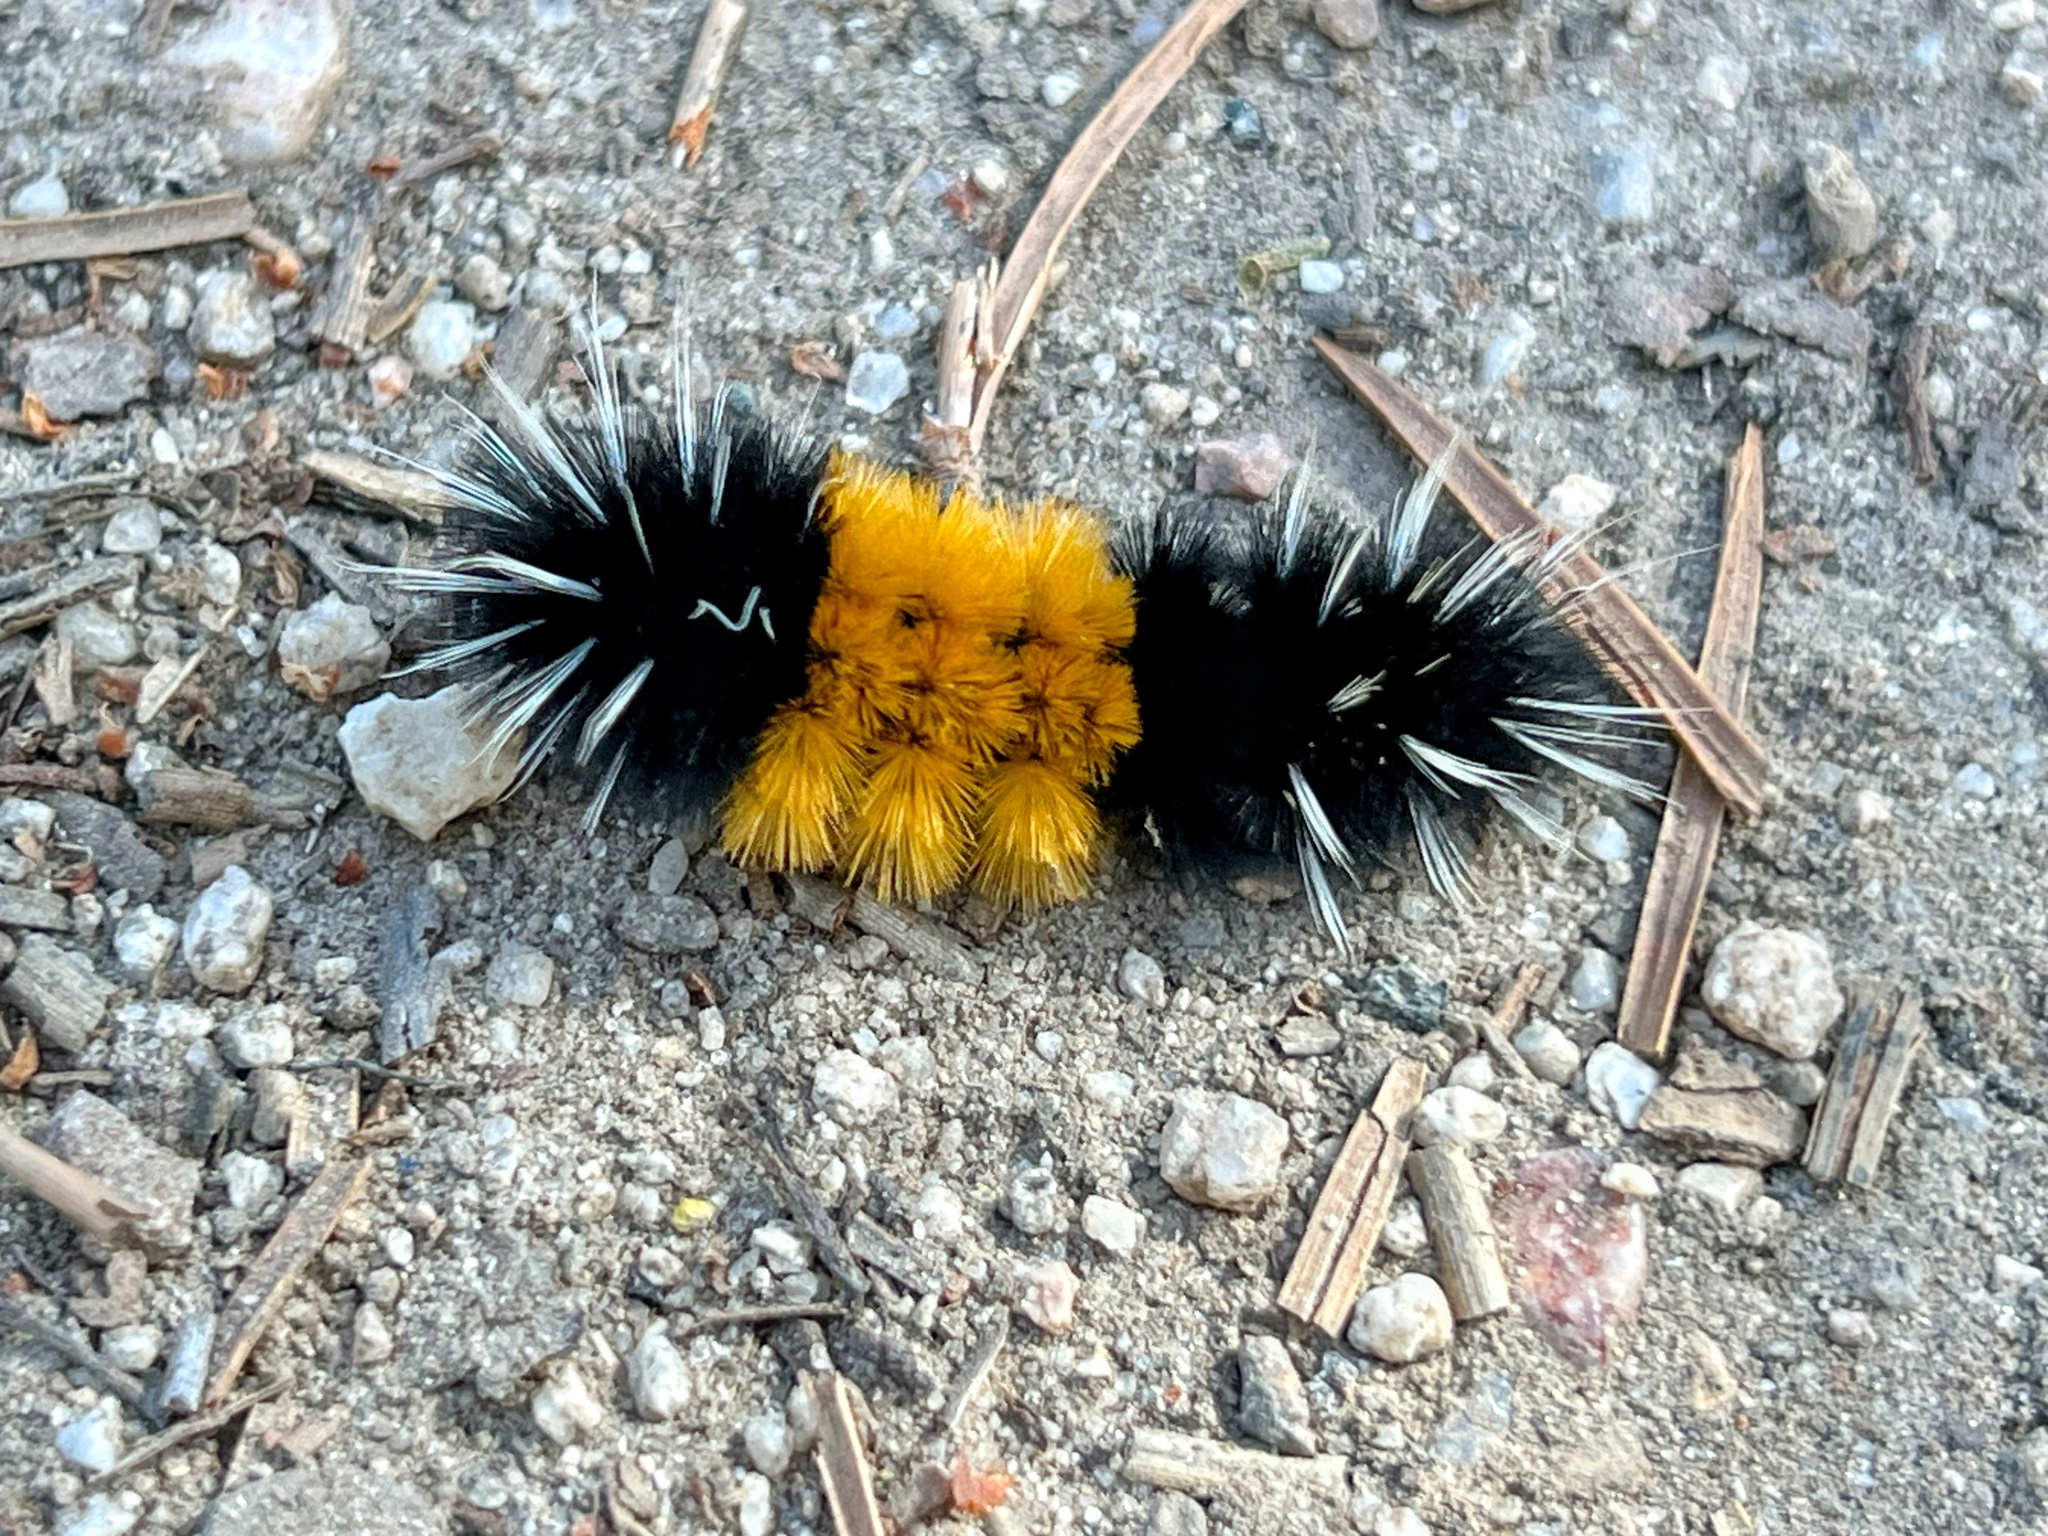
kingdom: Animalia
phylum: Arthropoda
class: Insecta
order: Lepidoptera
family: Erebidae
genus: Lophocampa
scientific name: Lophocampa maculata
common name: Spotted tussock moth
